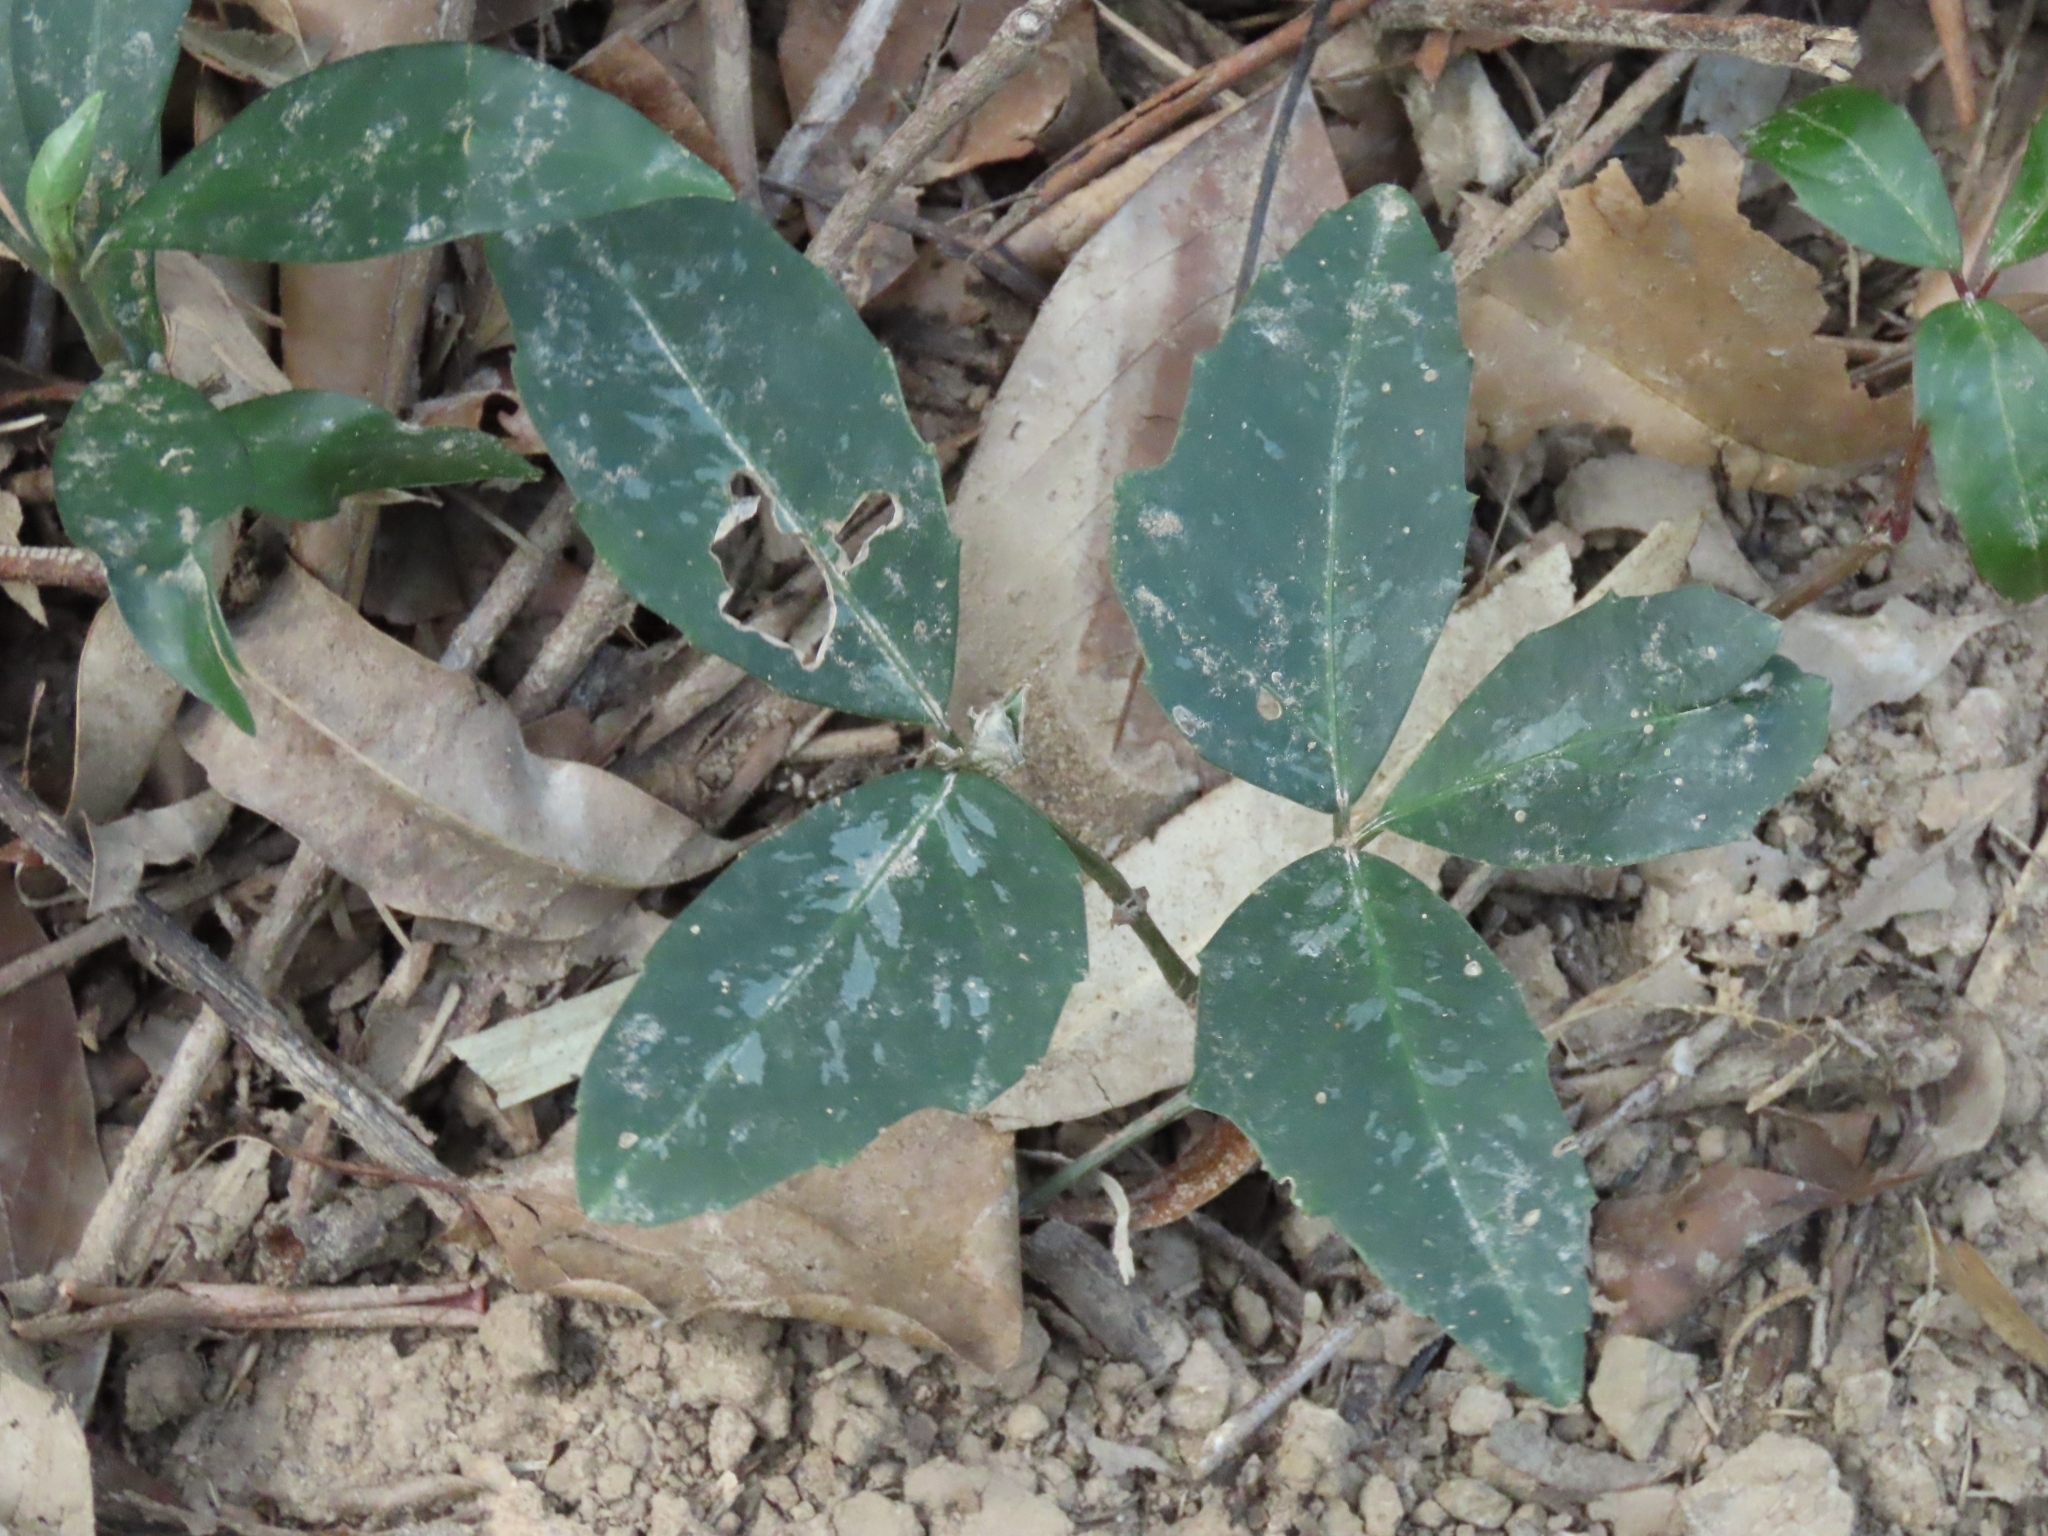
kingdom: Plantae
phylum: Tracheophyta
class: Magnoliopsida
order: Vitales
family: Vitaceae
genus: Tetrastigma
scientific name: Tetrastigma formosanum
